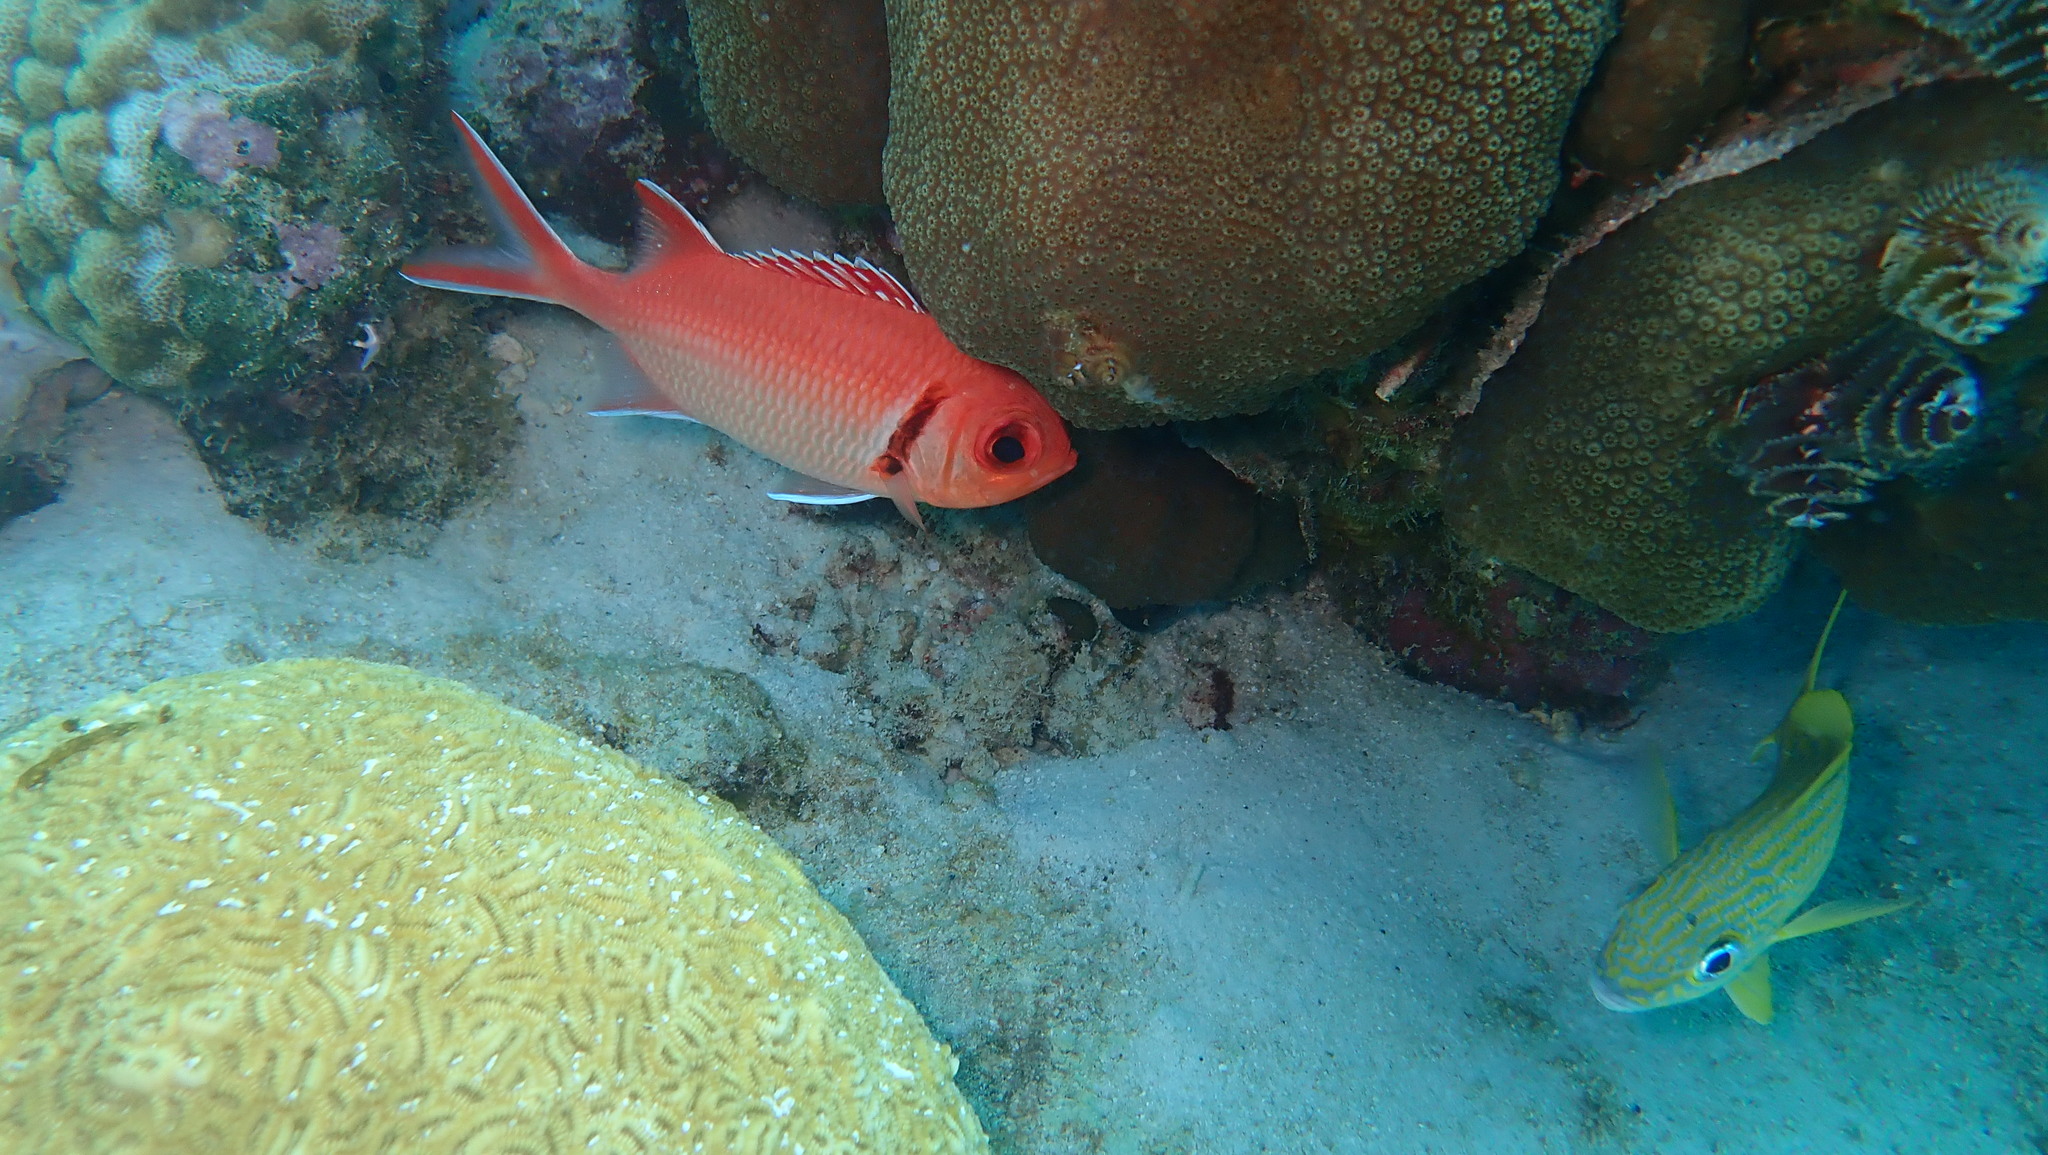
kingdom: Animalia
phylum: Chordata
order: Beryciformes
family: Holocentridae
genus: Myripristis
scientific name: Myripristis jacobus
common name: Blackbar soldierfish
